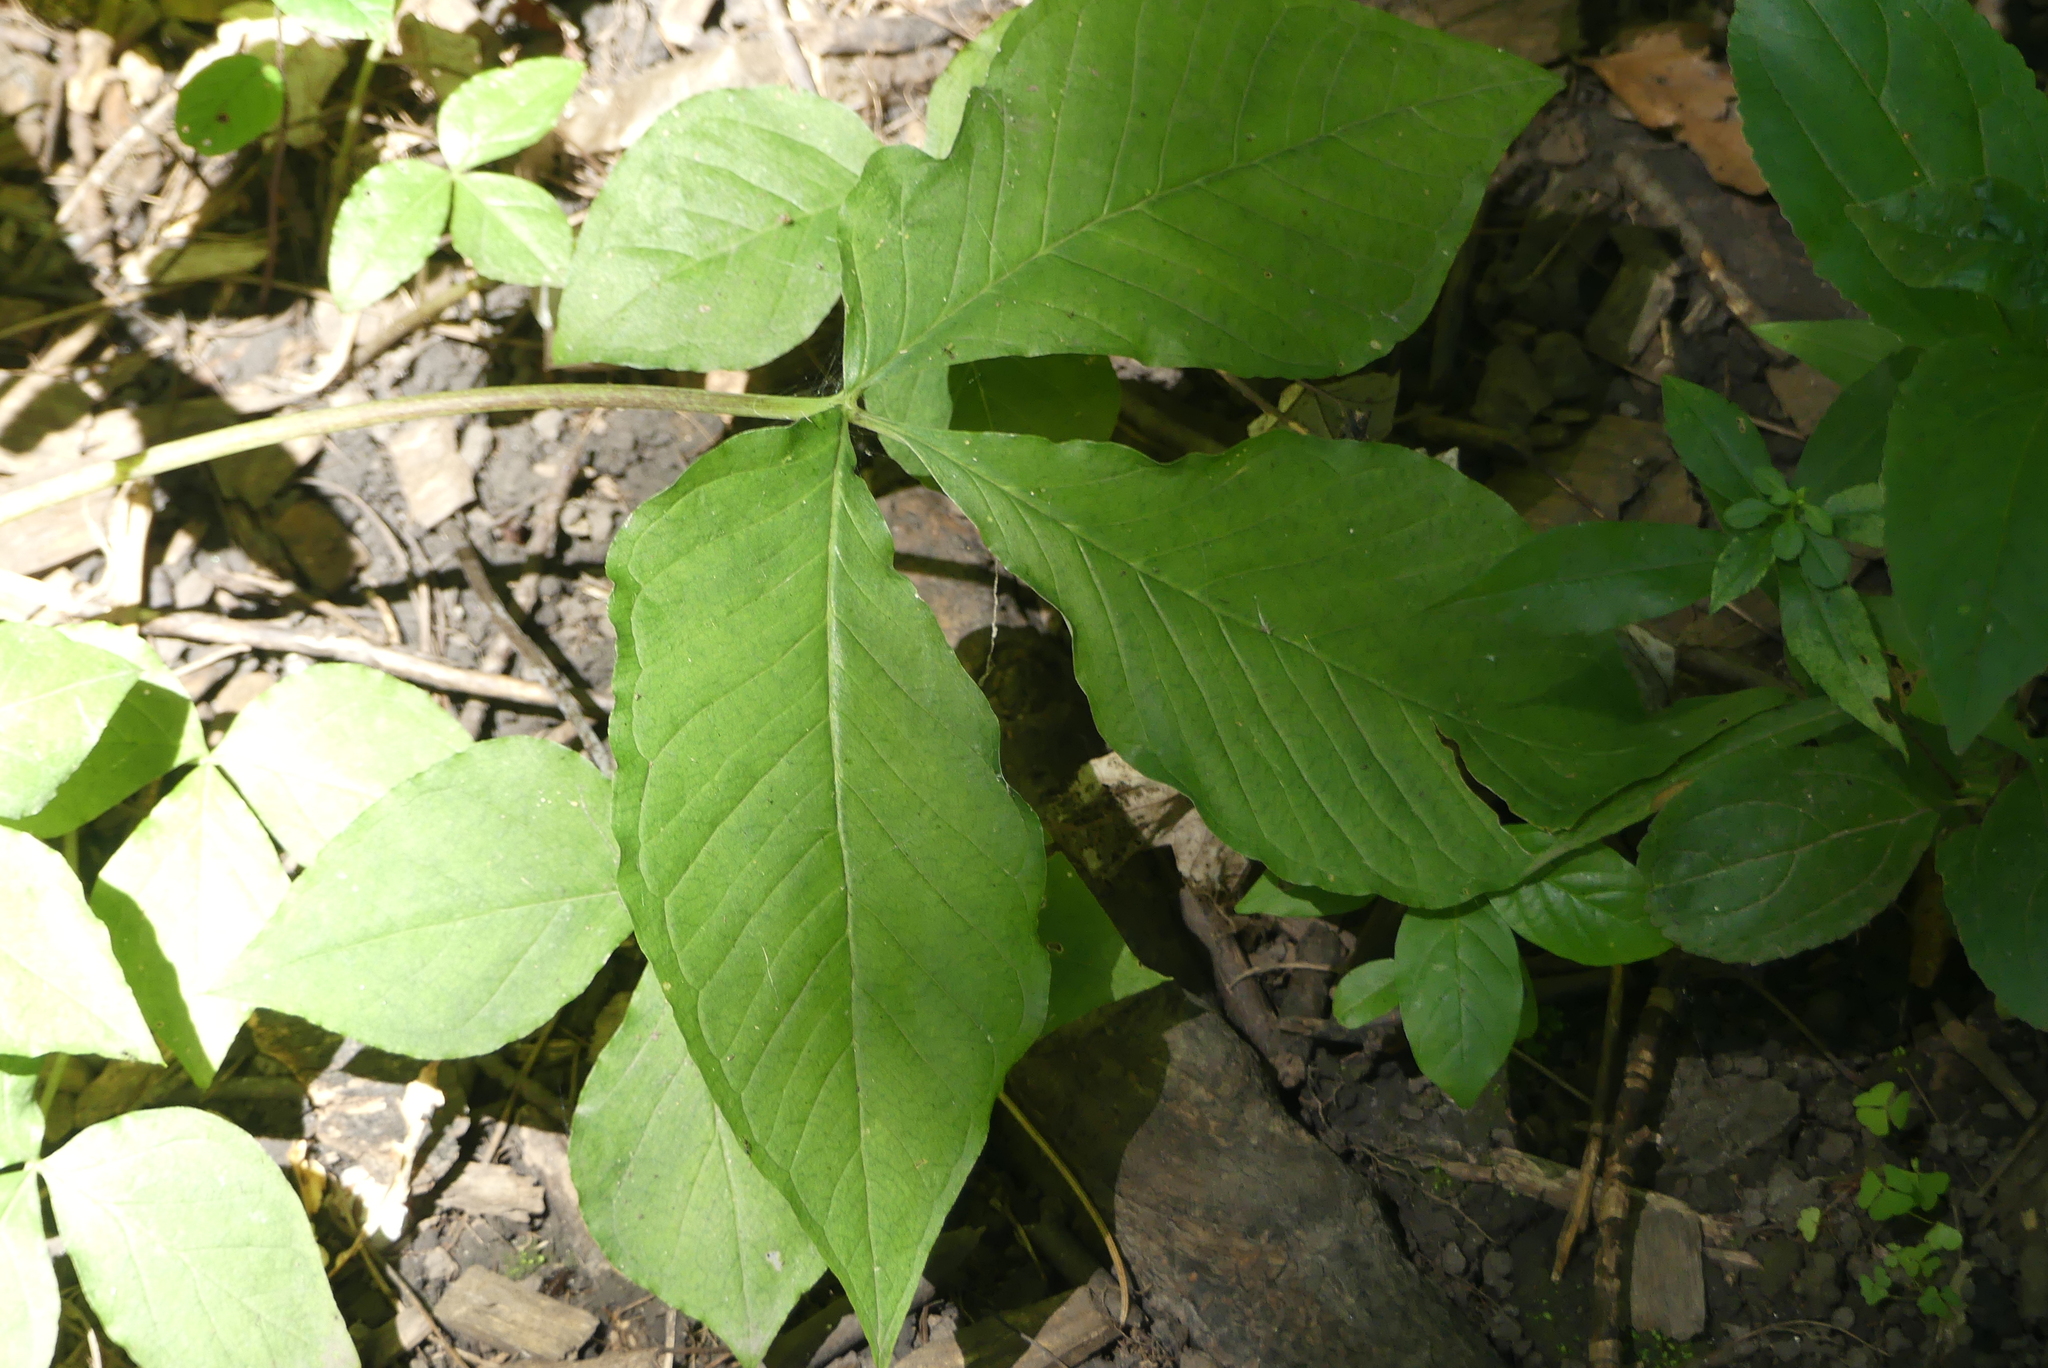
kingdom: Plantae
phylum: Tracheophyta
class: Liliopsida
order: Alismatales
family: Araceae
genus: Arisaema
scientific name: Arisaema triphyllum
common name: Jack-in-the-pulpit
